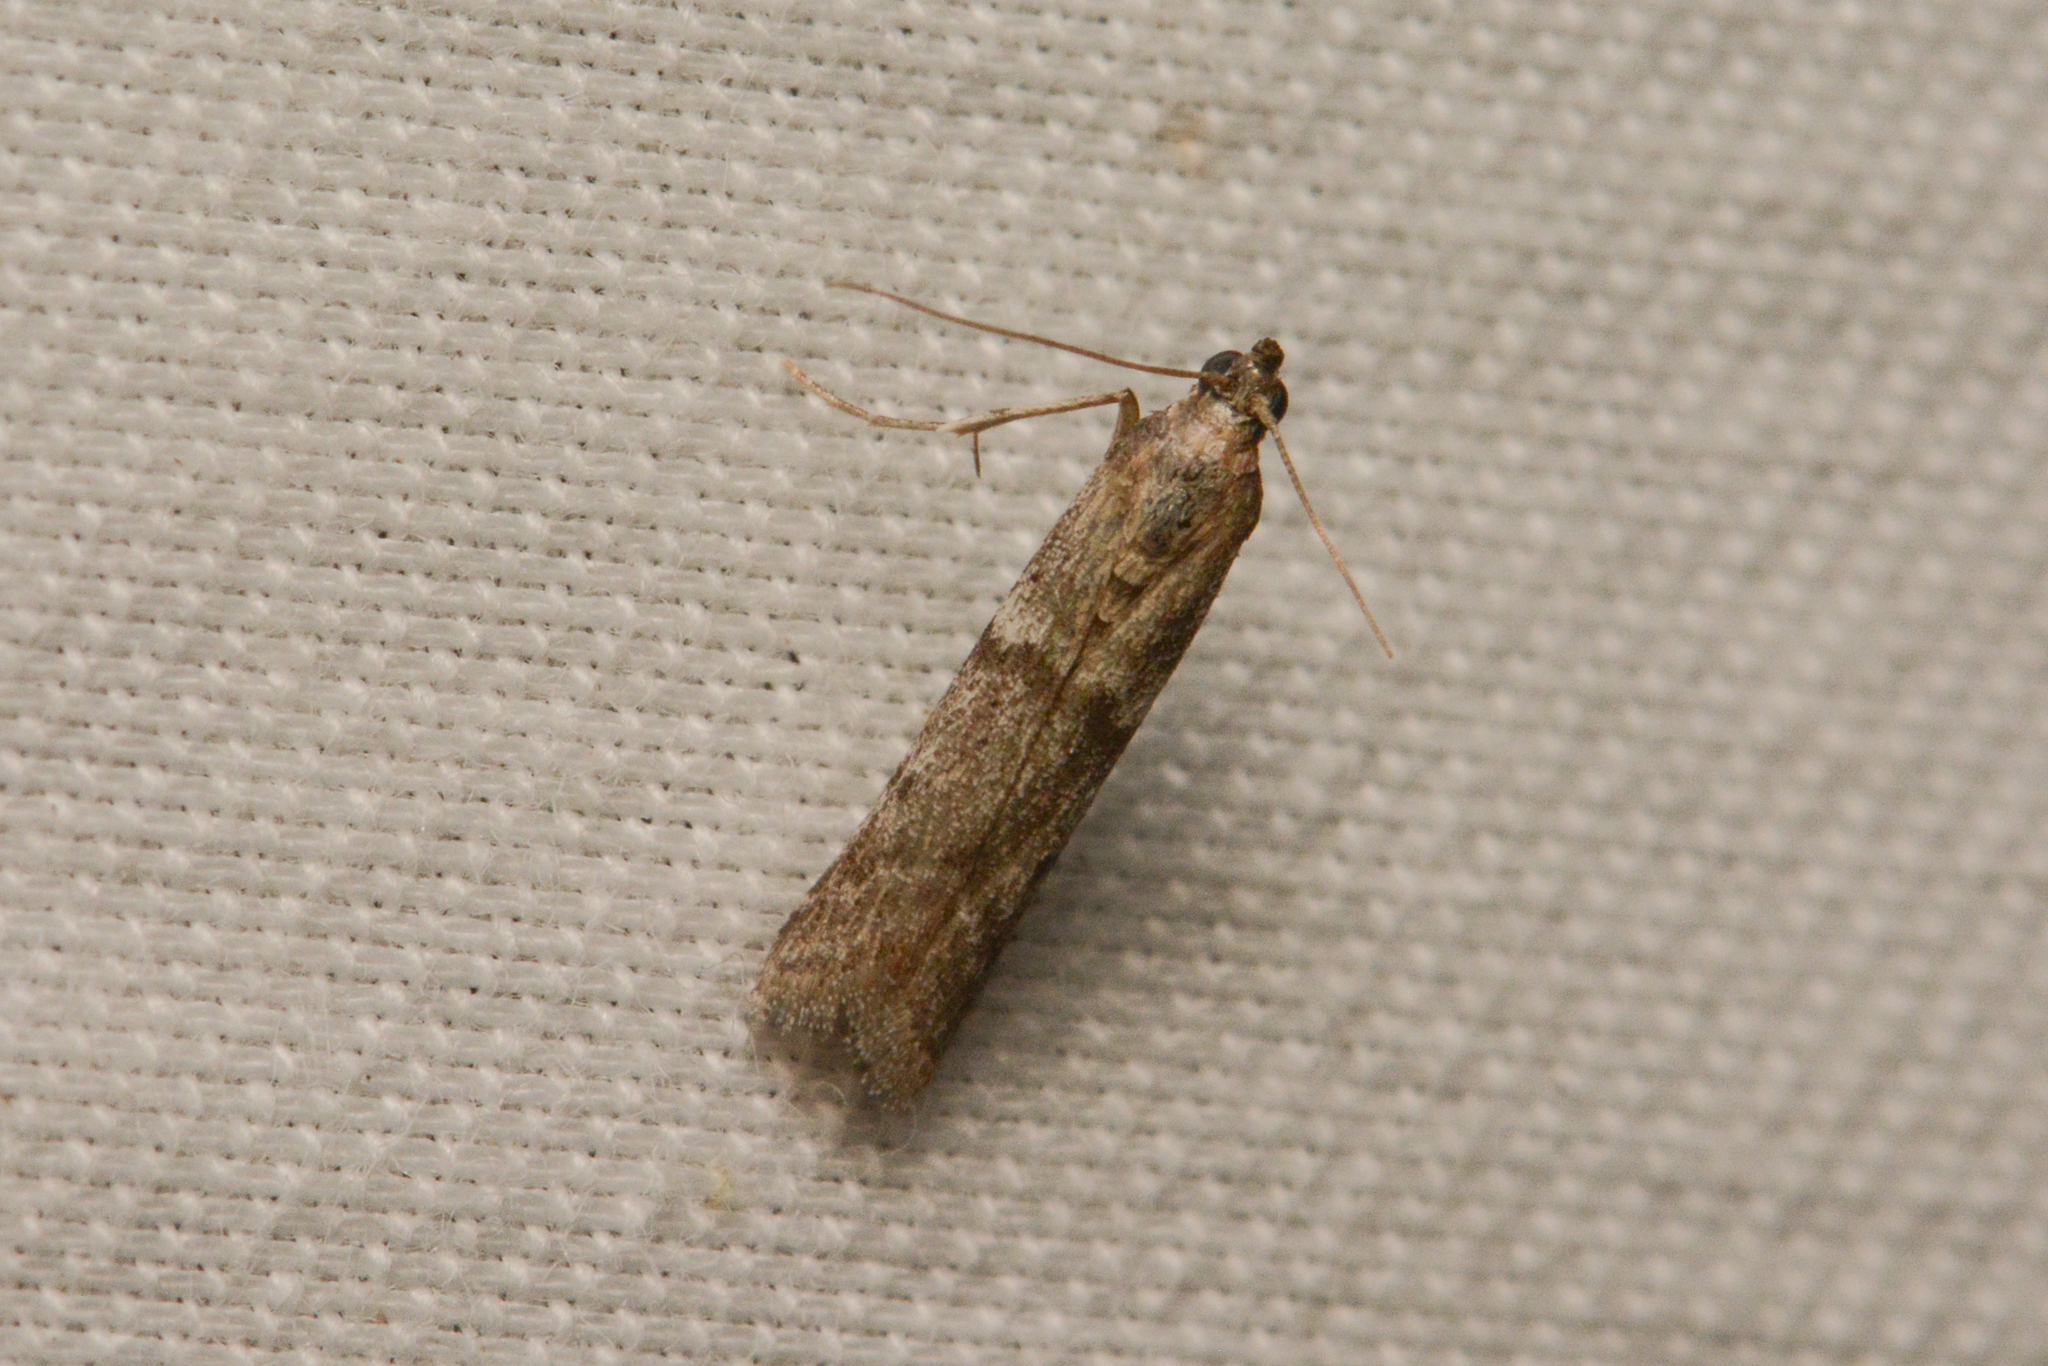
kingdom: Animalia
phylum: Arthropoda
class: Insecta
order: Lepidoptera
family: Pyralidae
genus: Ephestiodes
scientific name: Ephestiodes gilvescentella
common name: Moth
